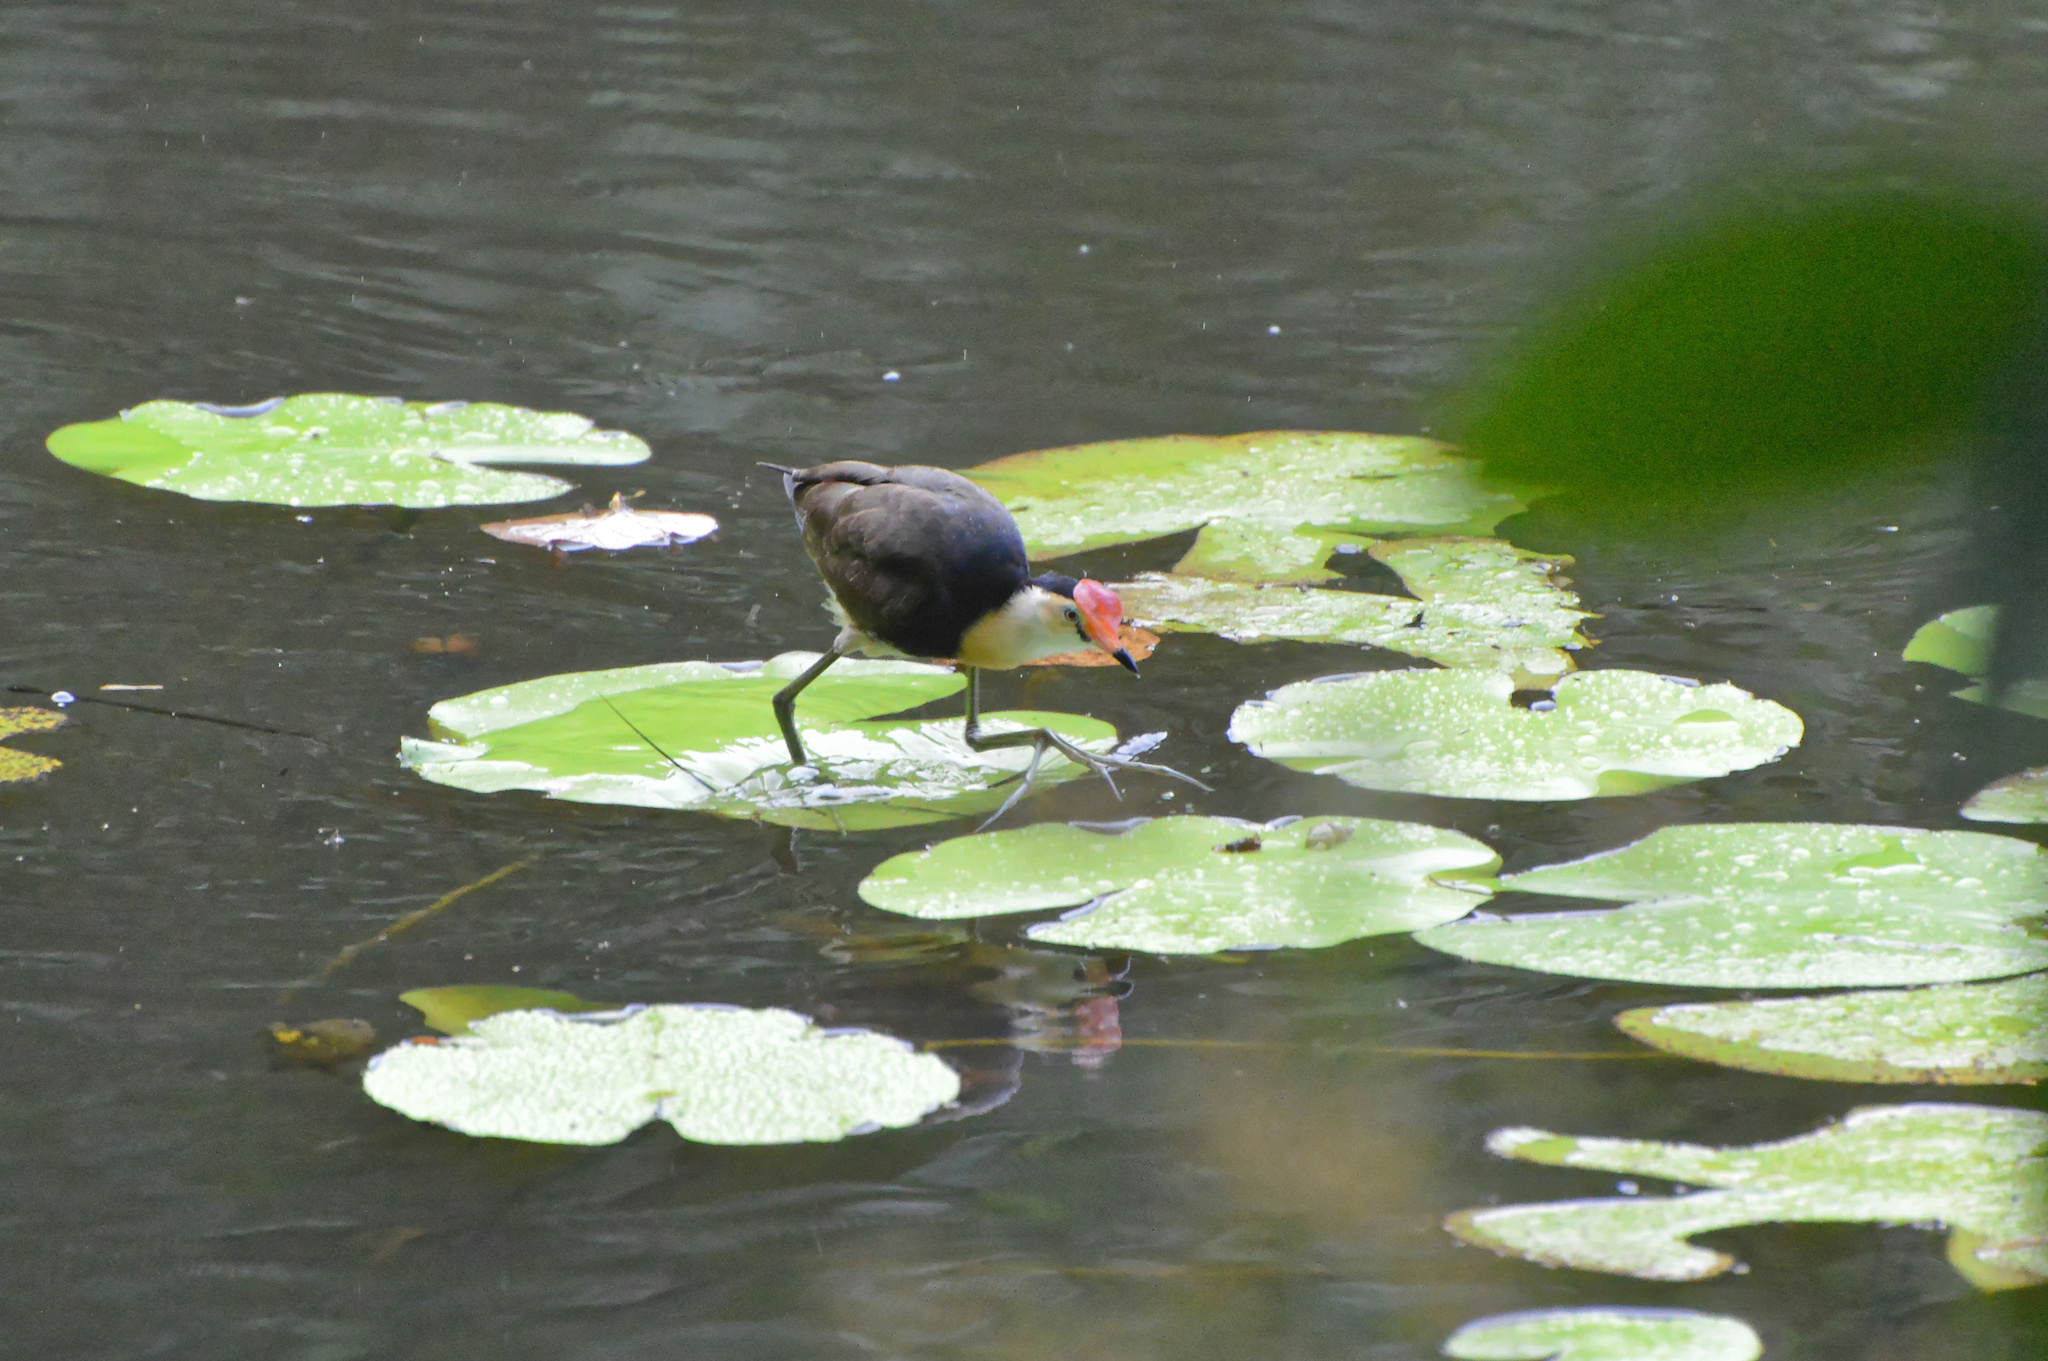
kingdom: Animalia
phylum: Chordata
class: Aves
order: Charadriiformes
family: Jacanidae
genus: Irediparra
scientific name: Irediparra gallinacea
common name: Comb-crested jacana
